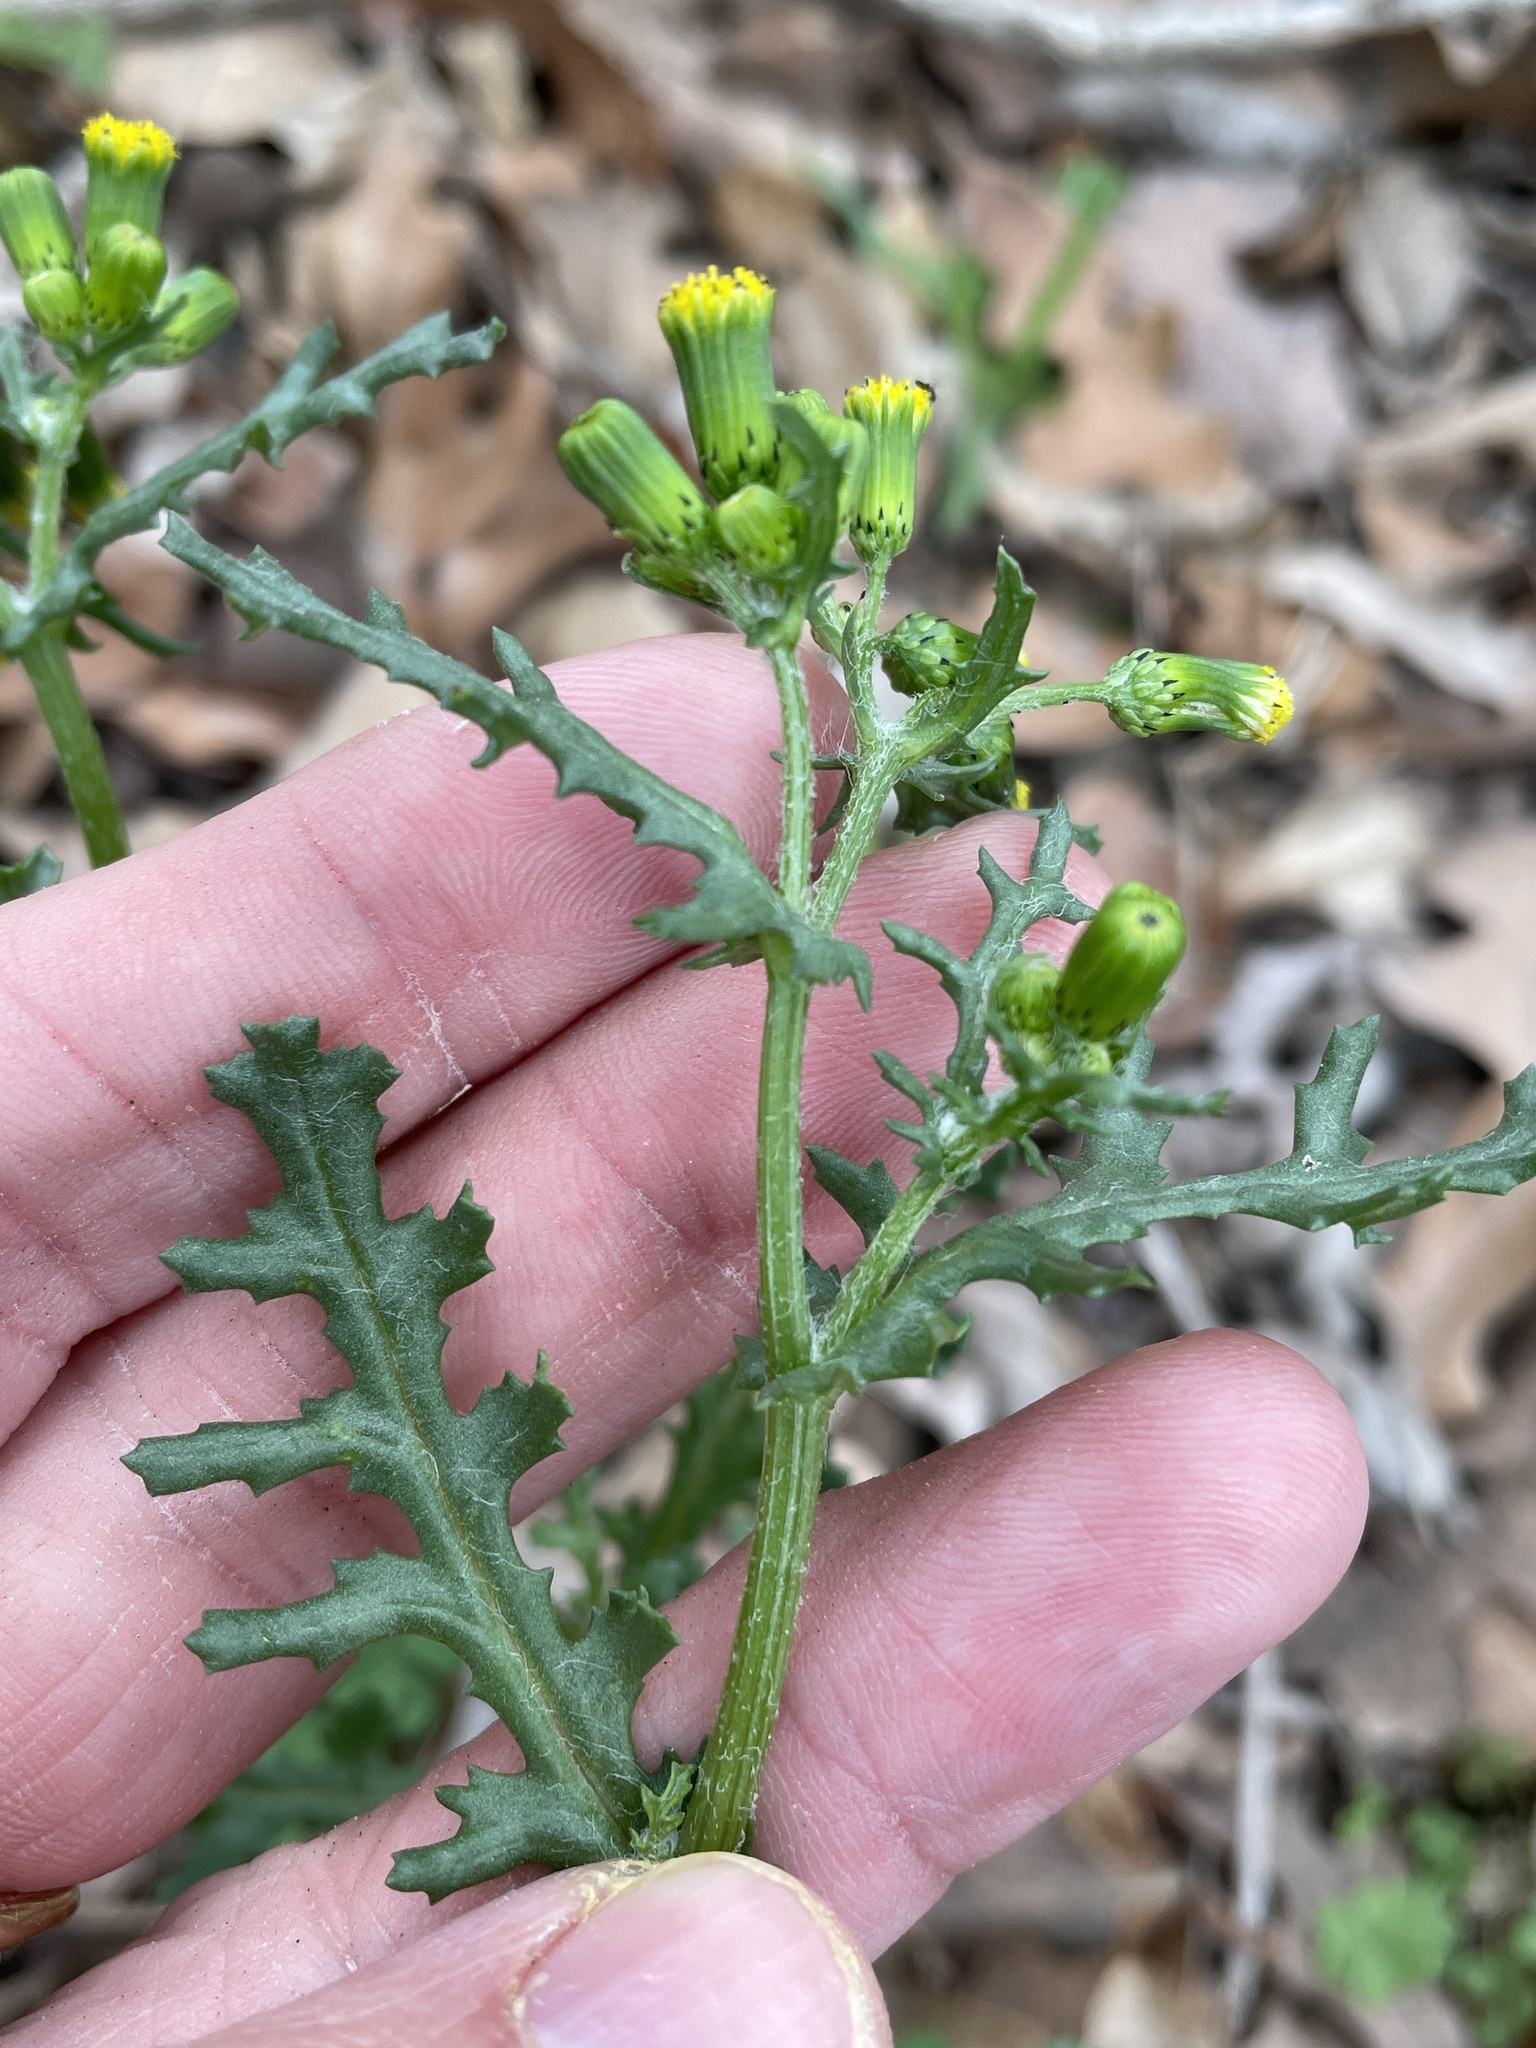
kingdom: Plantae
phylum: Tracheophyta
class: Magnoliopsida
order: Asterales
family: Asteraceae
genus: Senecio
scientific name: Senecio vulgaris
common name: Old-man-in-the-spring
